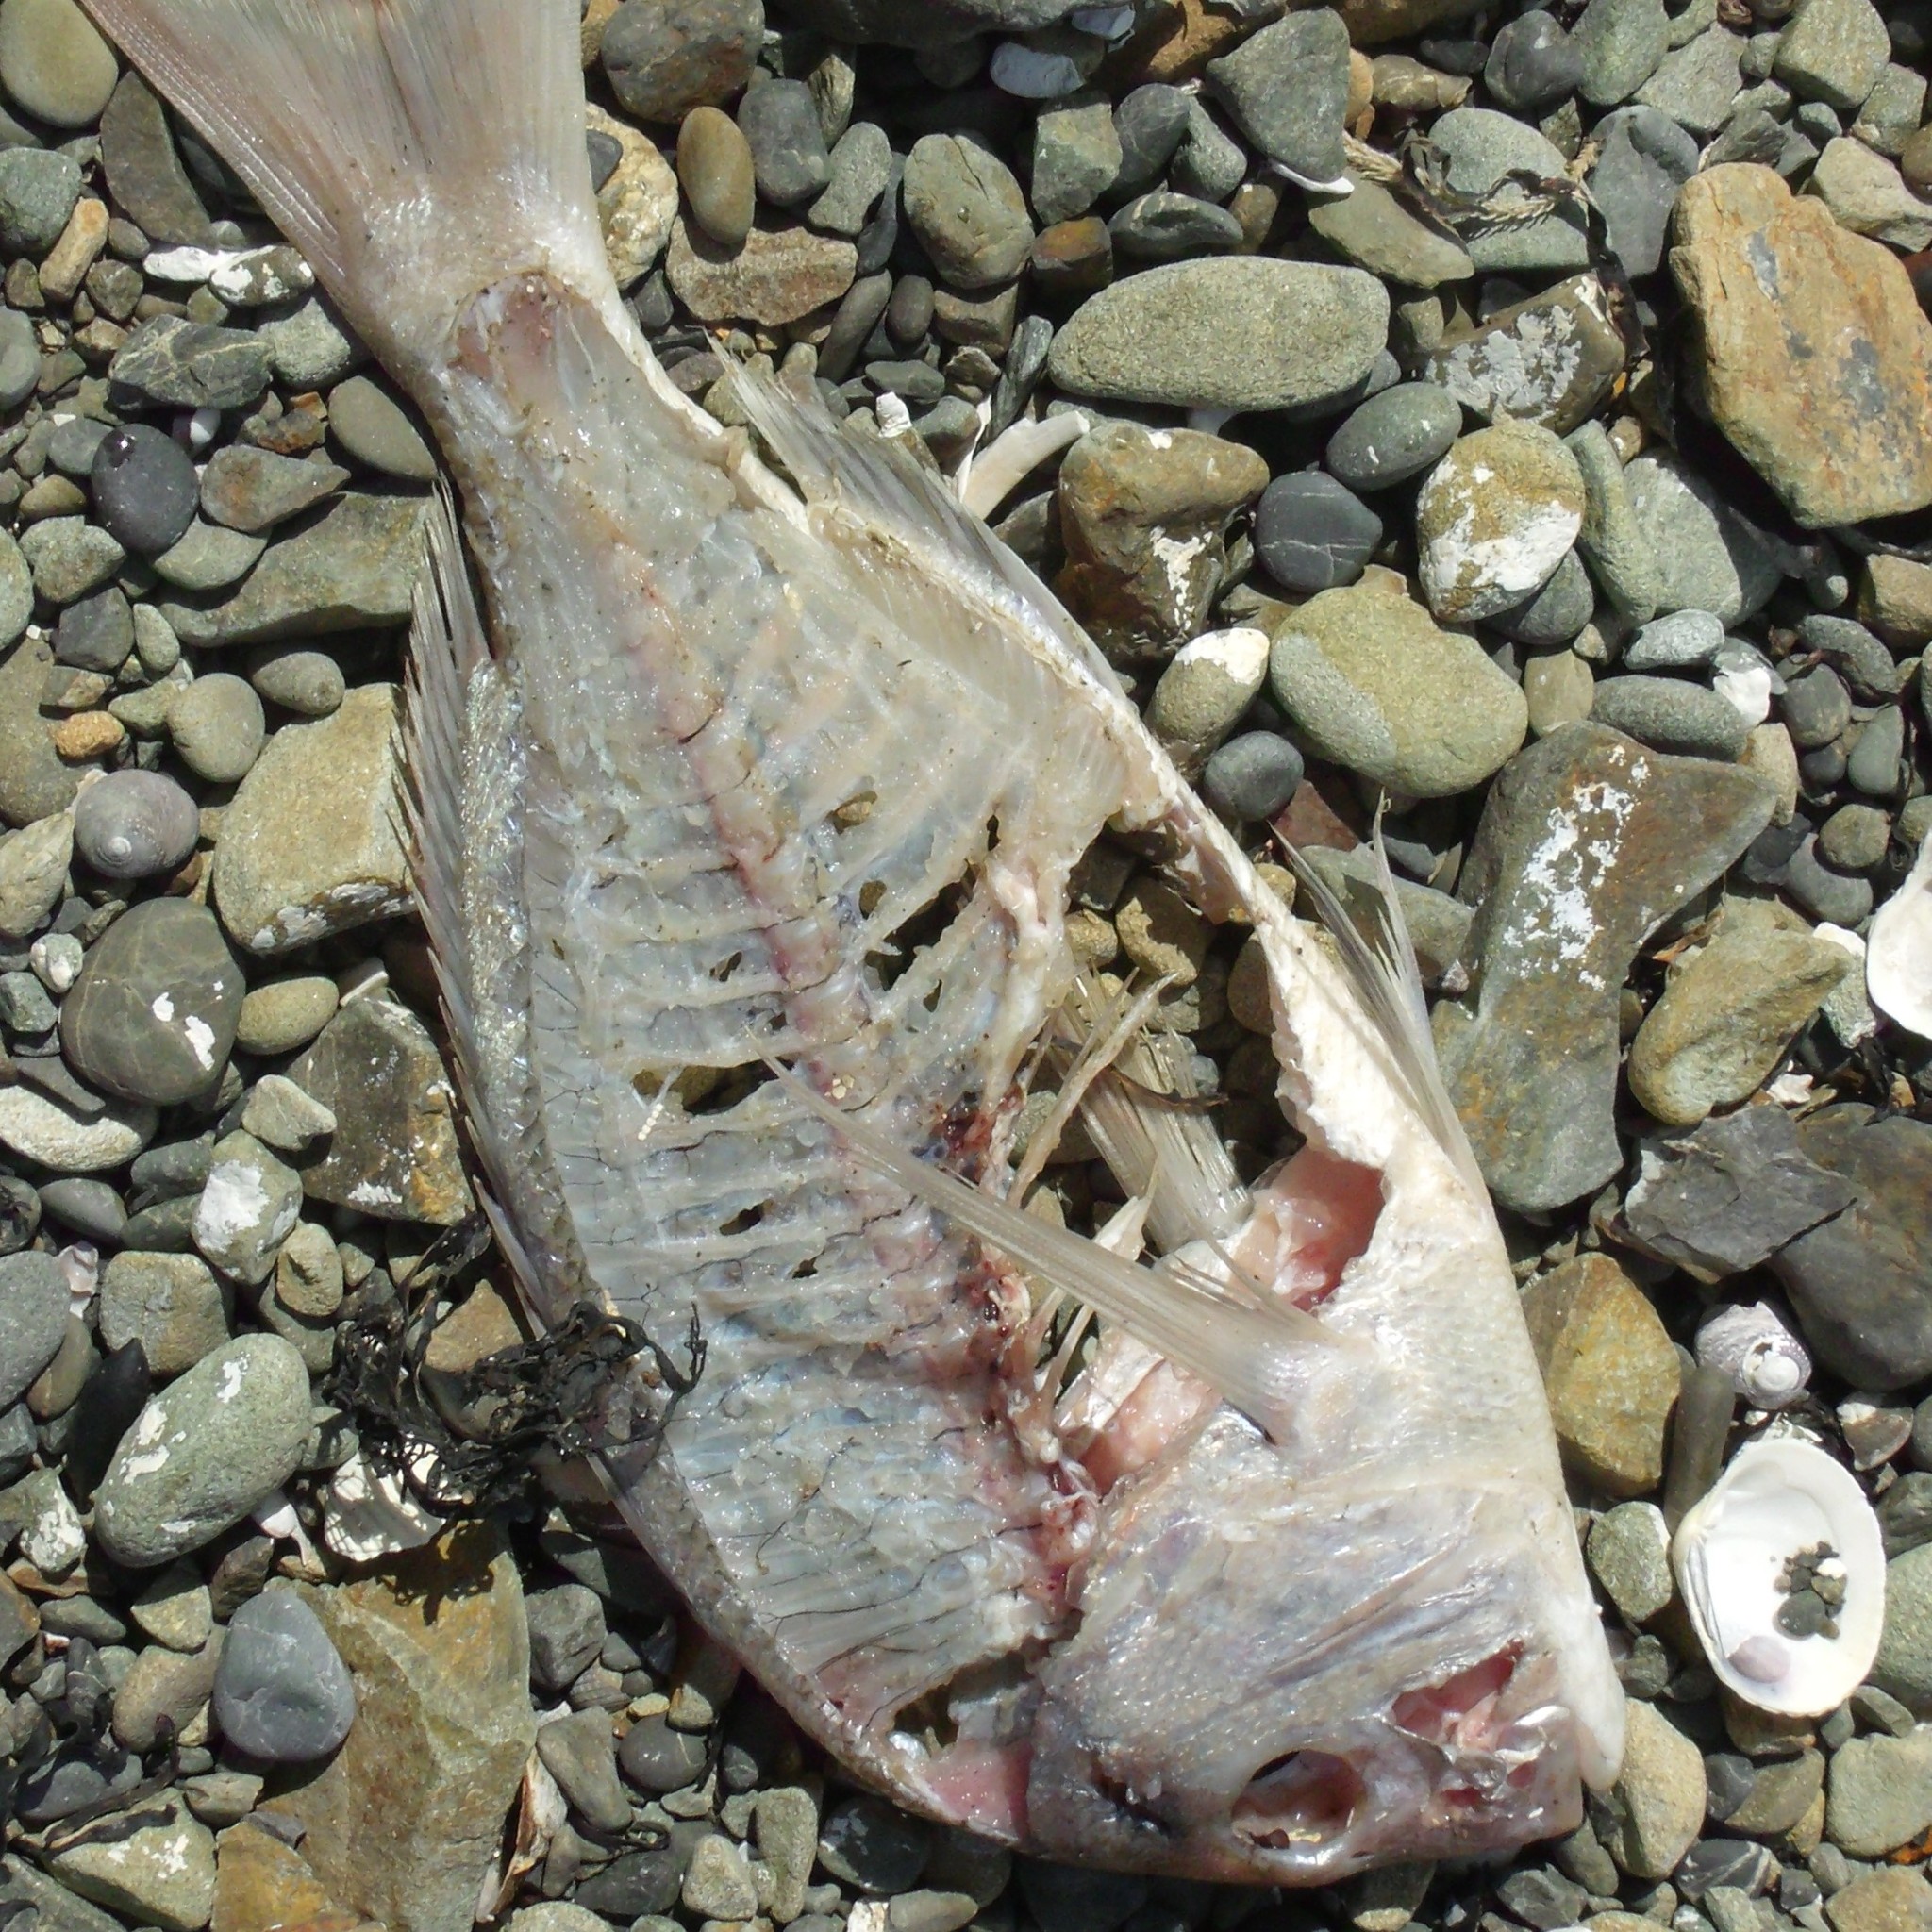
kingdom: Animalia
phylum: Chordata
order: Perciformes
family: Sparidae
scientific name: Sparidae
